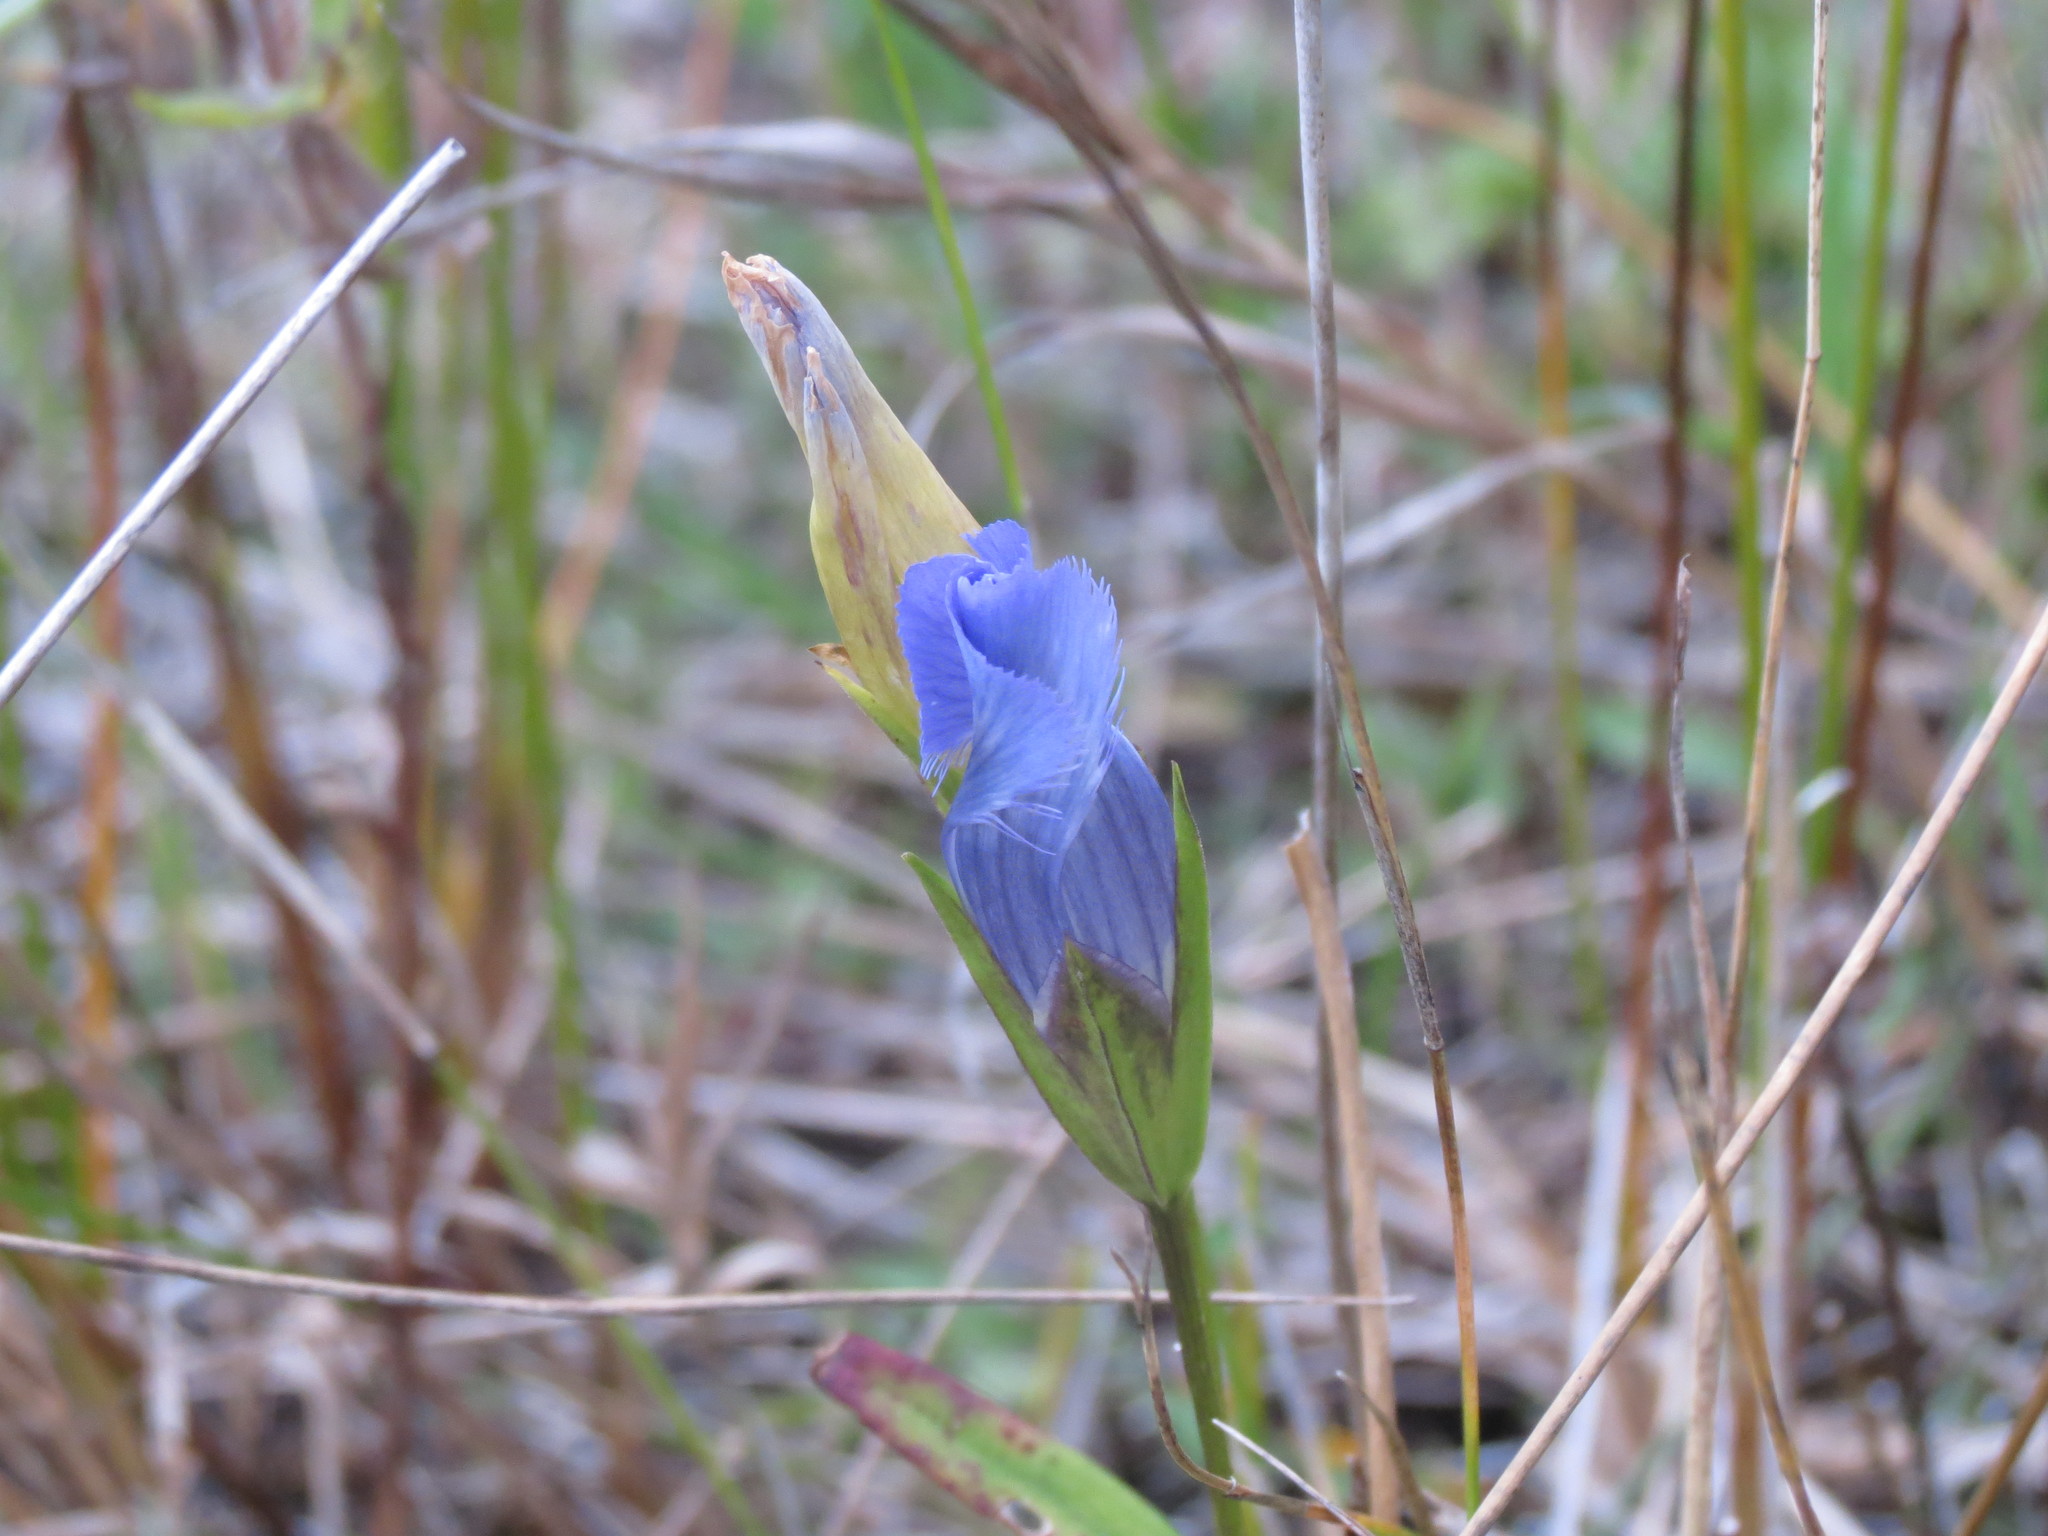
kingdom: Plantae
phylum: Tracheophyta
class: Magnoliopsida
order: Gentianales
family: Gentianaceae
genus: Gentianopsis
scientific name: Gentianopsis crinita
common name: Fringed-gentian
